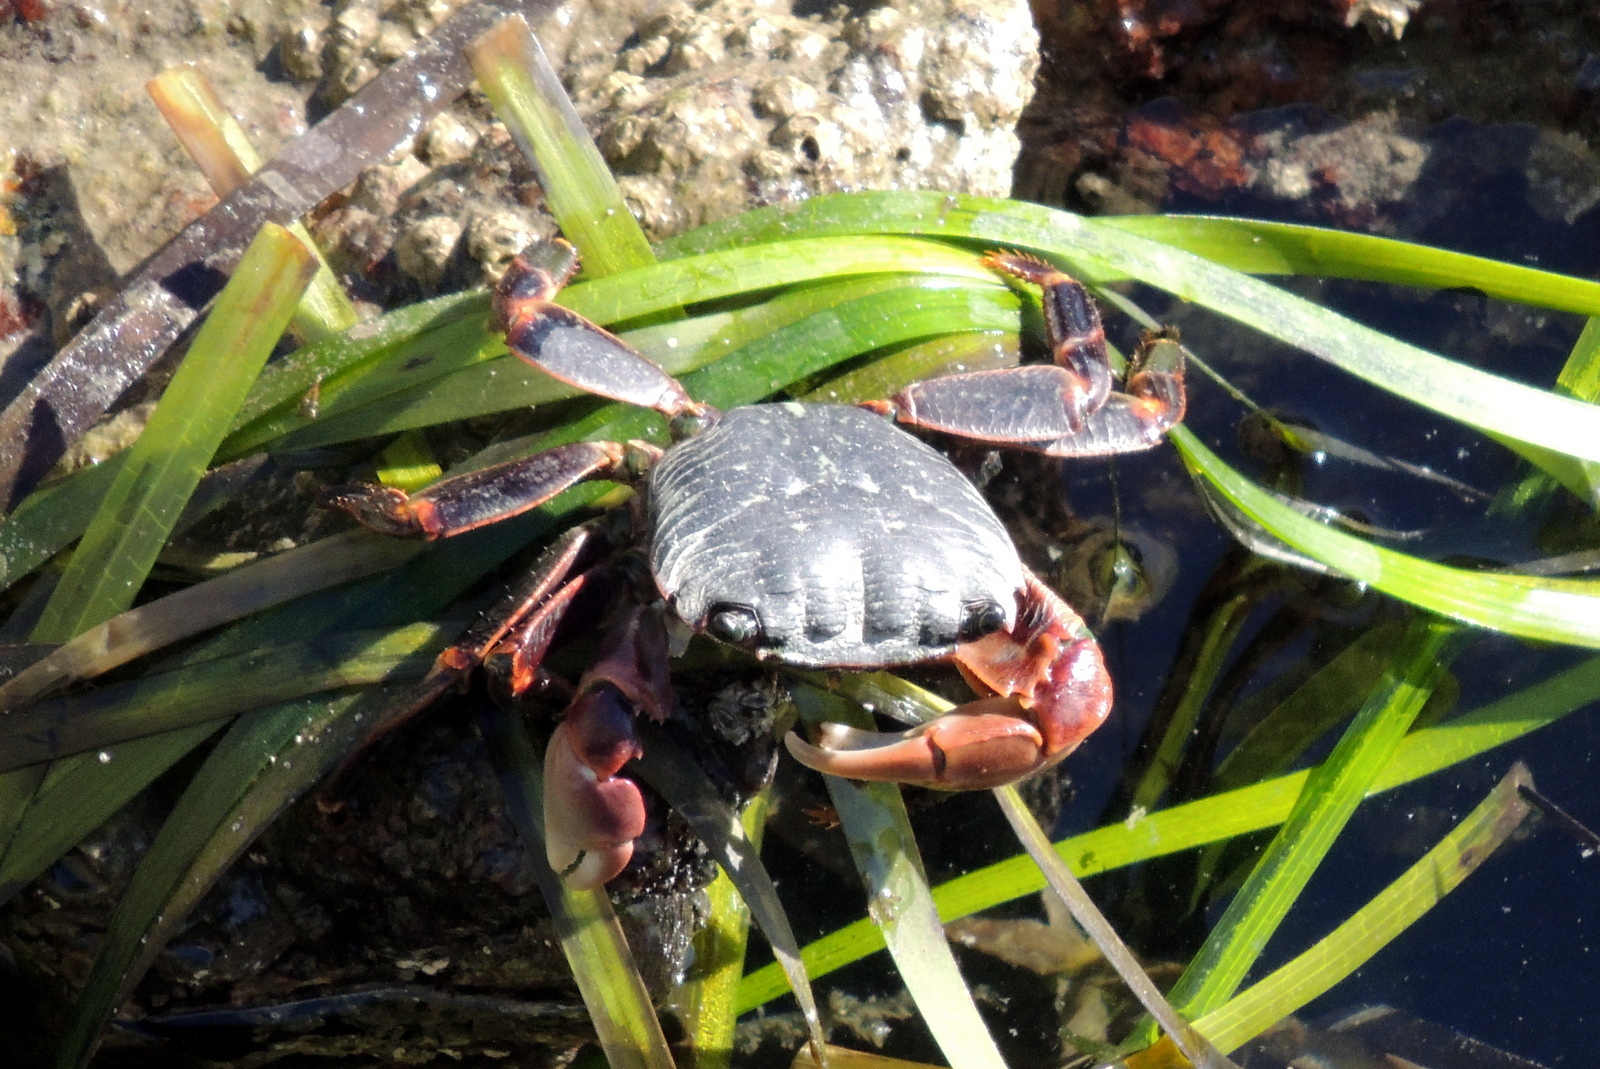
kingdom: Animalia
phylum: Arthropoda
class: Malacostraca
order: Decapoda
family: Grapsidae
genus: Pachygrapsus
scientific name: Pachygrapsus crassipes
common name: Striped shore crab
